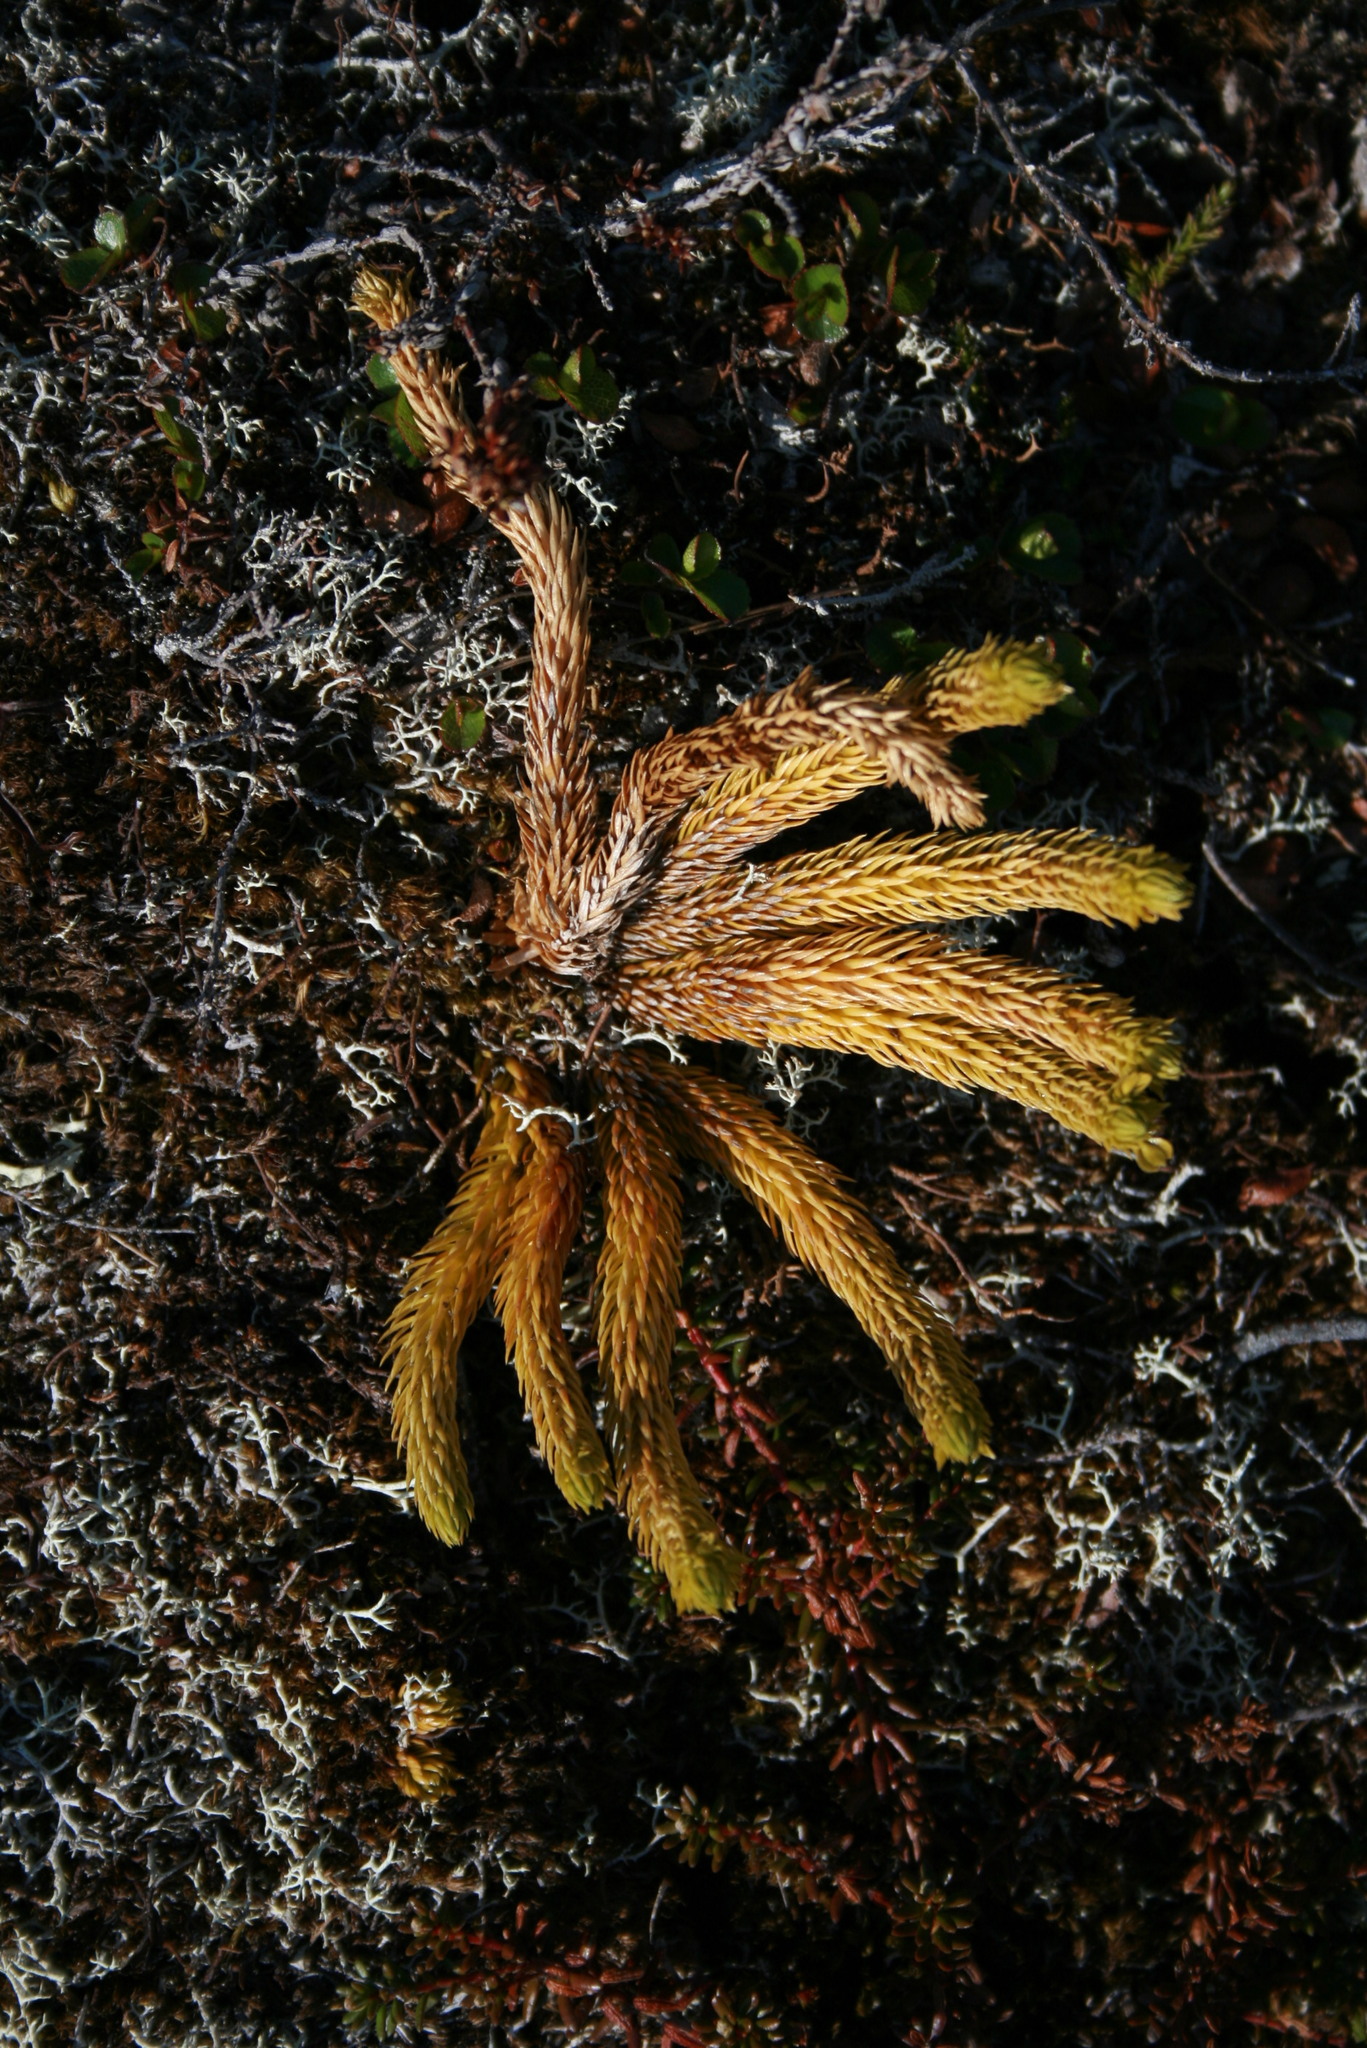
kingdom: Plantae
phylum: Tracheophyta
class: Lycopodiopsida
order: Lycopodiales
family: Lycopodiaceae
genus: Huperzia
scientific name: Huperzia selago
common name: Northern firmoss
